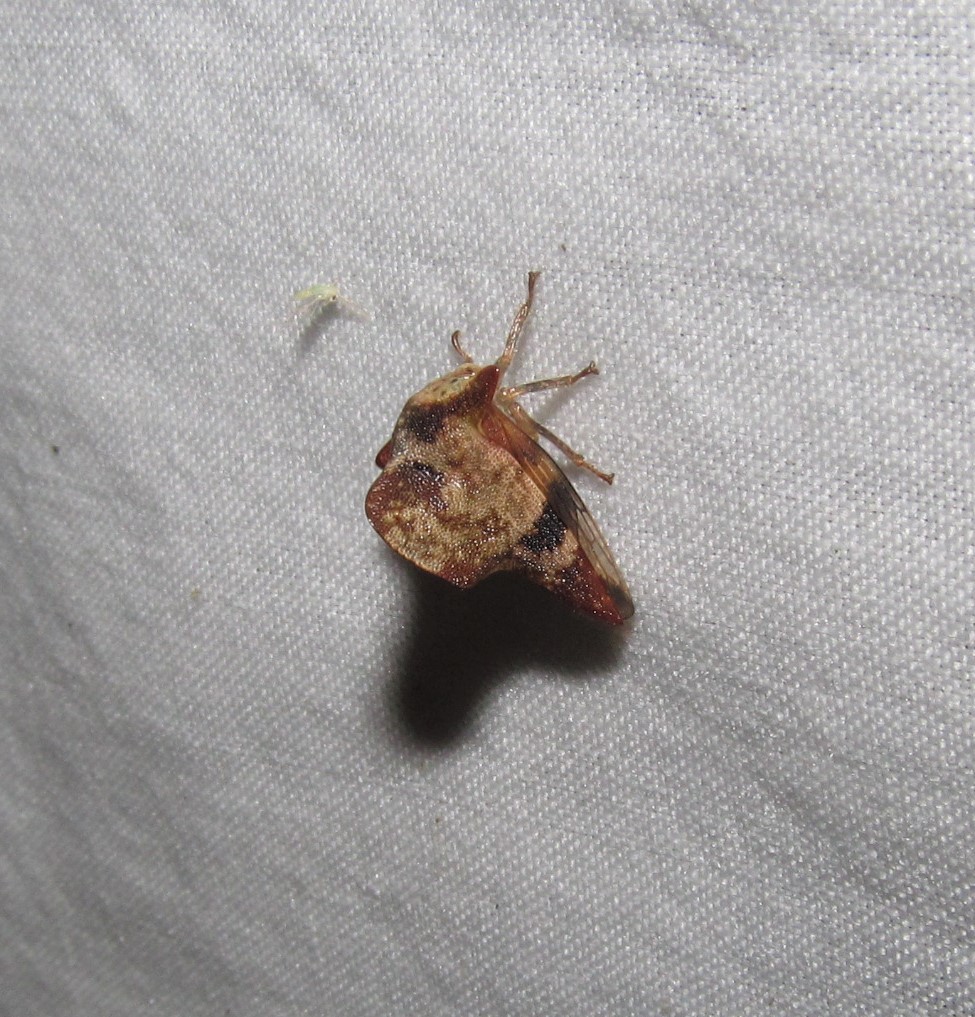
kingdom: Animalia
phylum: Arthropoda
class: Insecta
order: Hemiptera
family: Membracidae
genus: Telamona
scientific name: Telamona maculata
